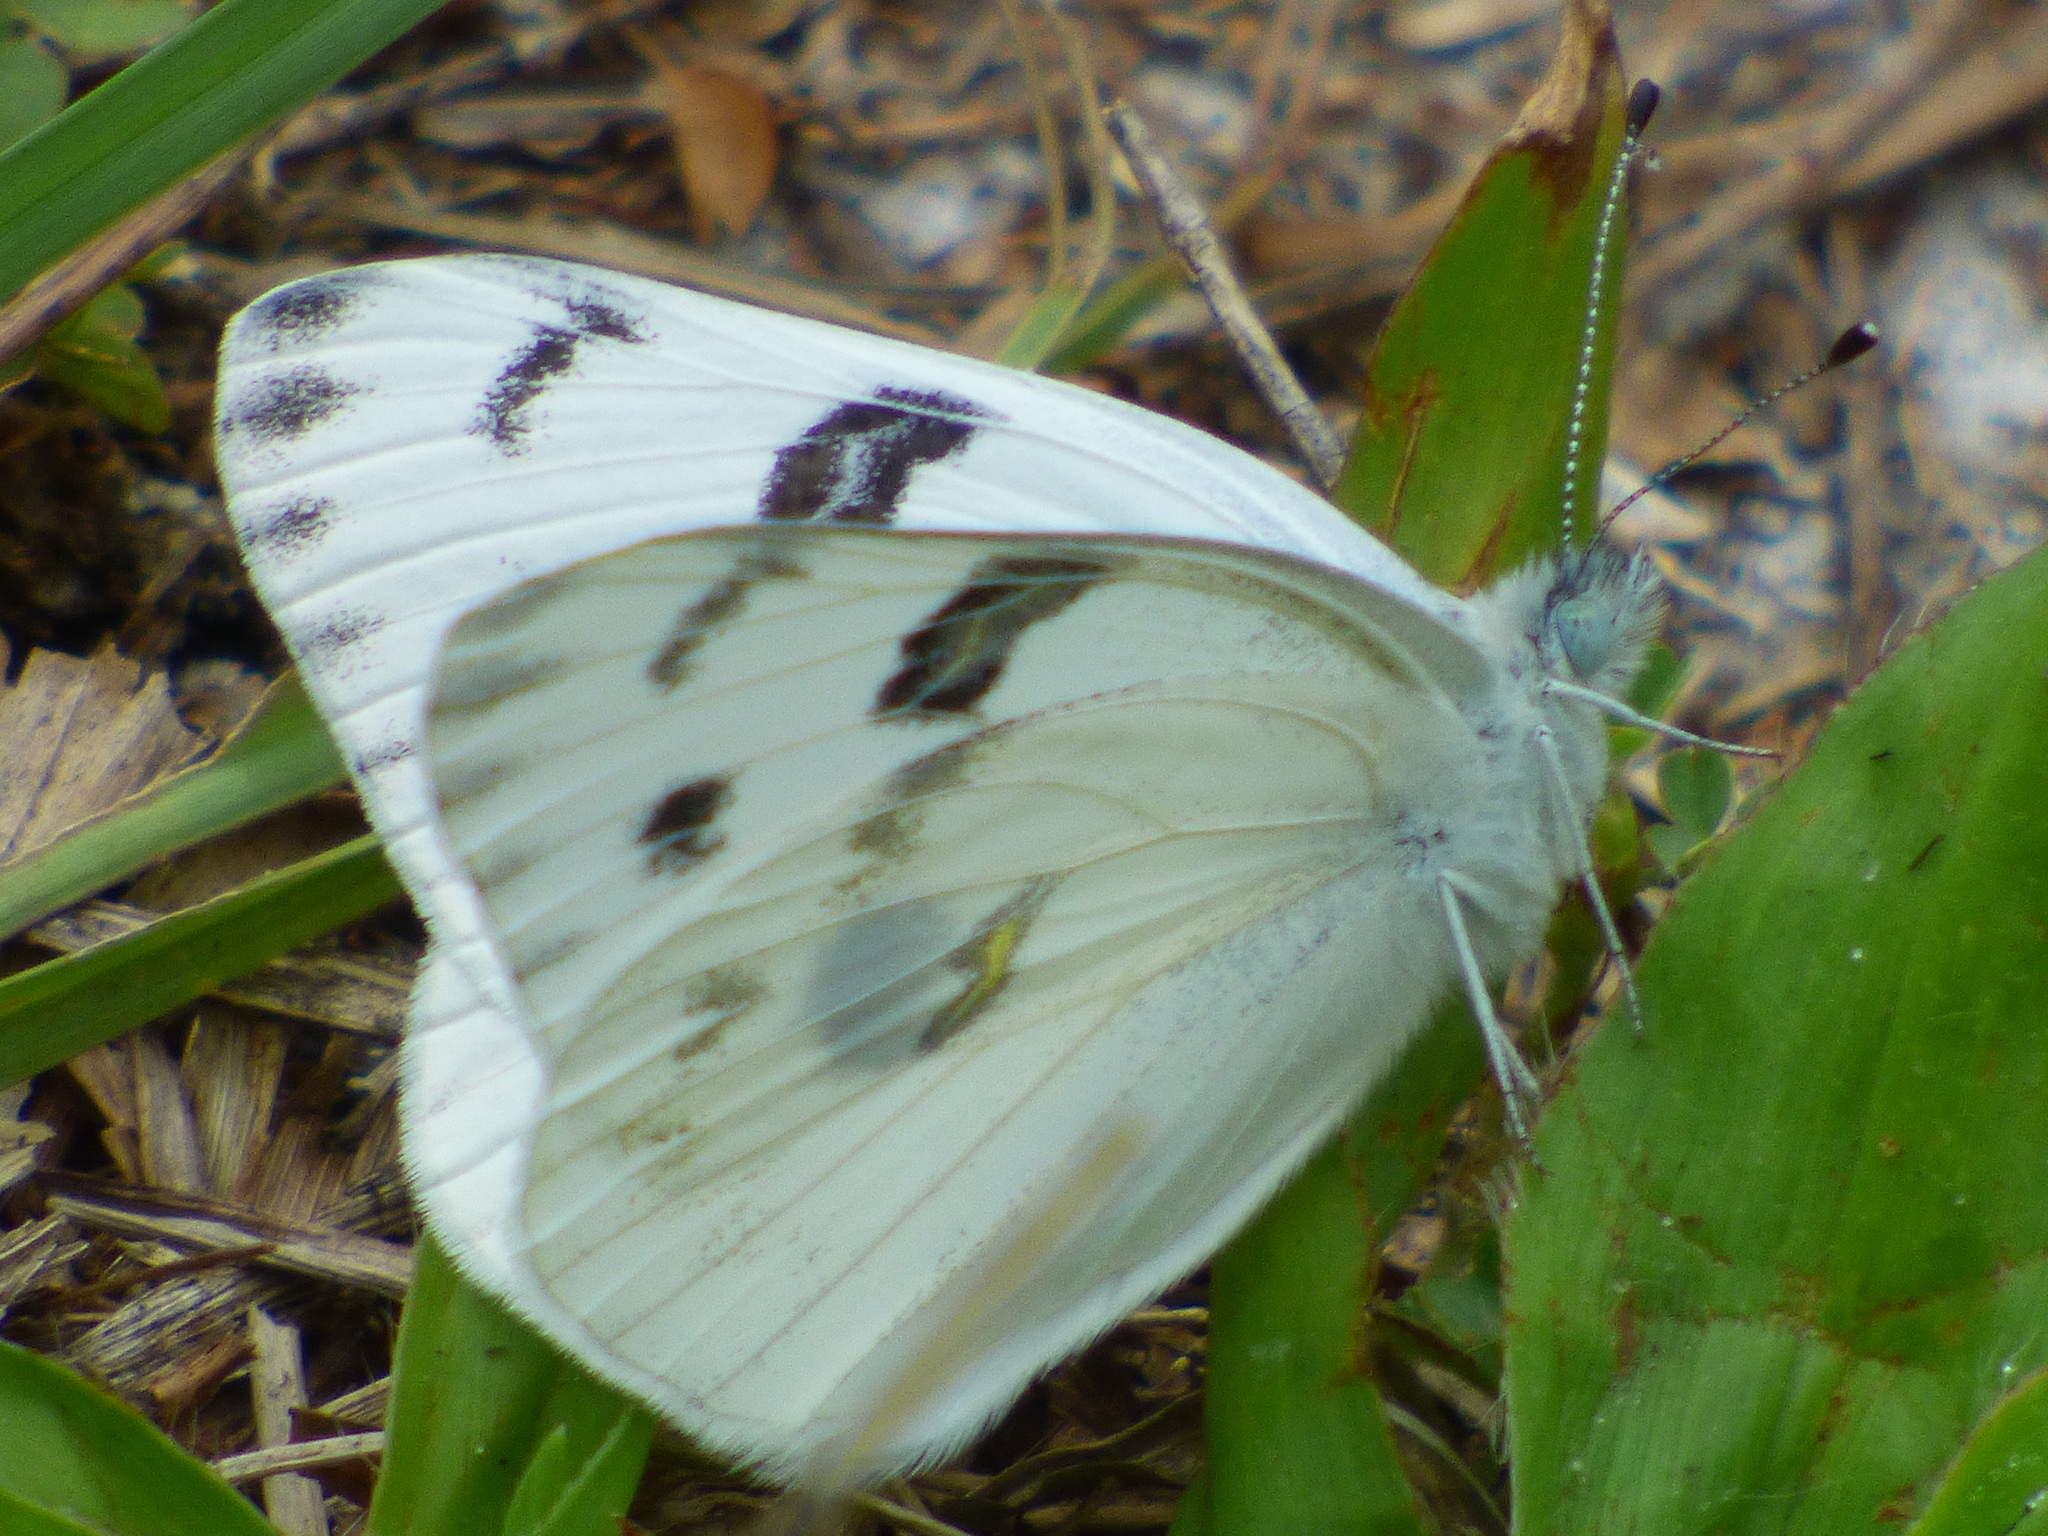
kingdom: Animalia
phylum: Arthropoda
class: Insecta
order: Lepidoptera
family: Pieridae
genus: Pontia
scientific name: Pontia protodice
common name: Checkered white
